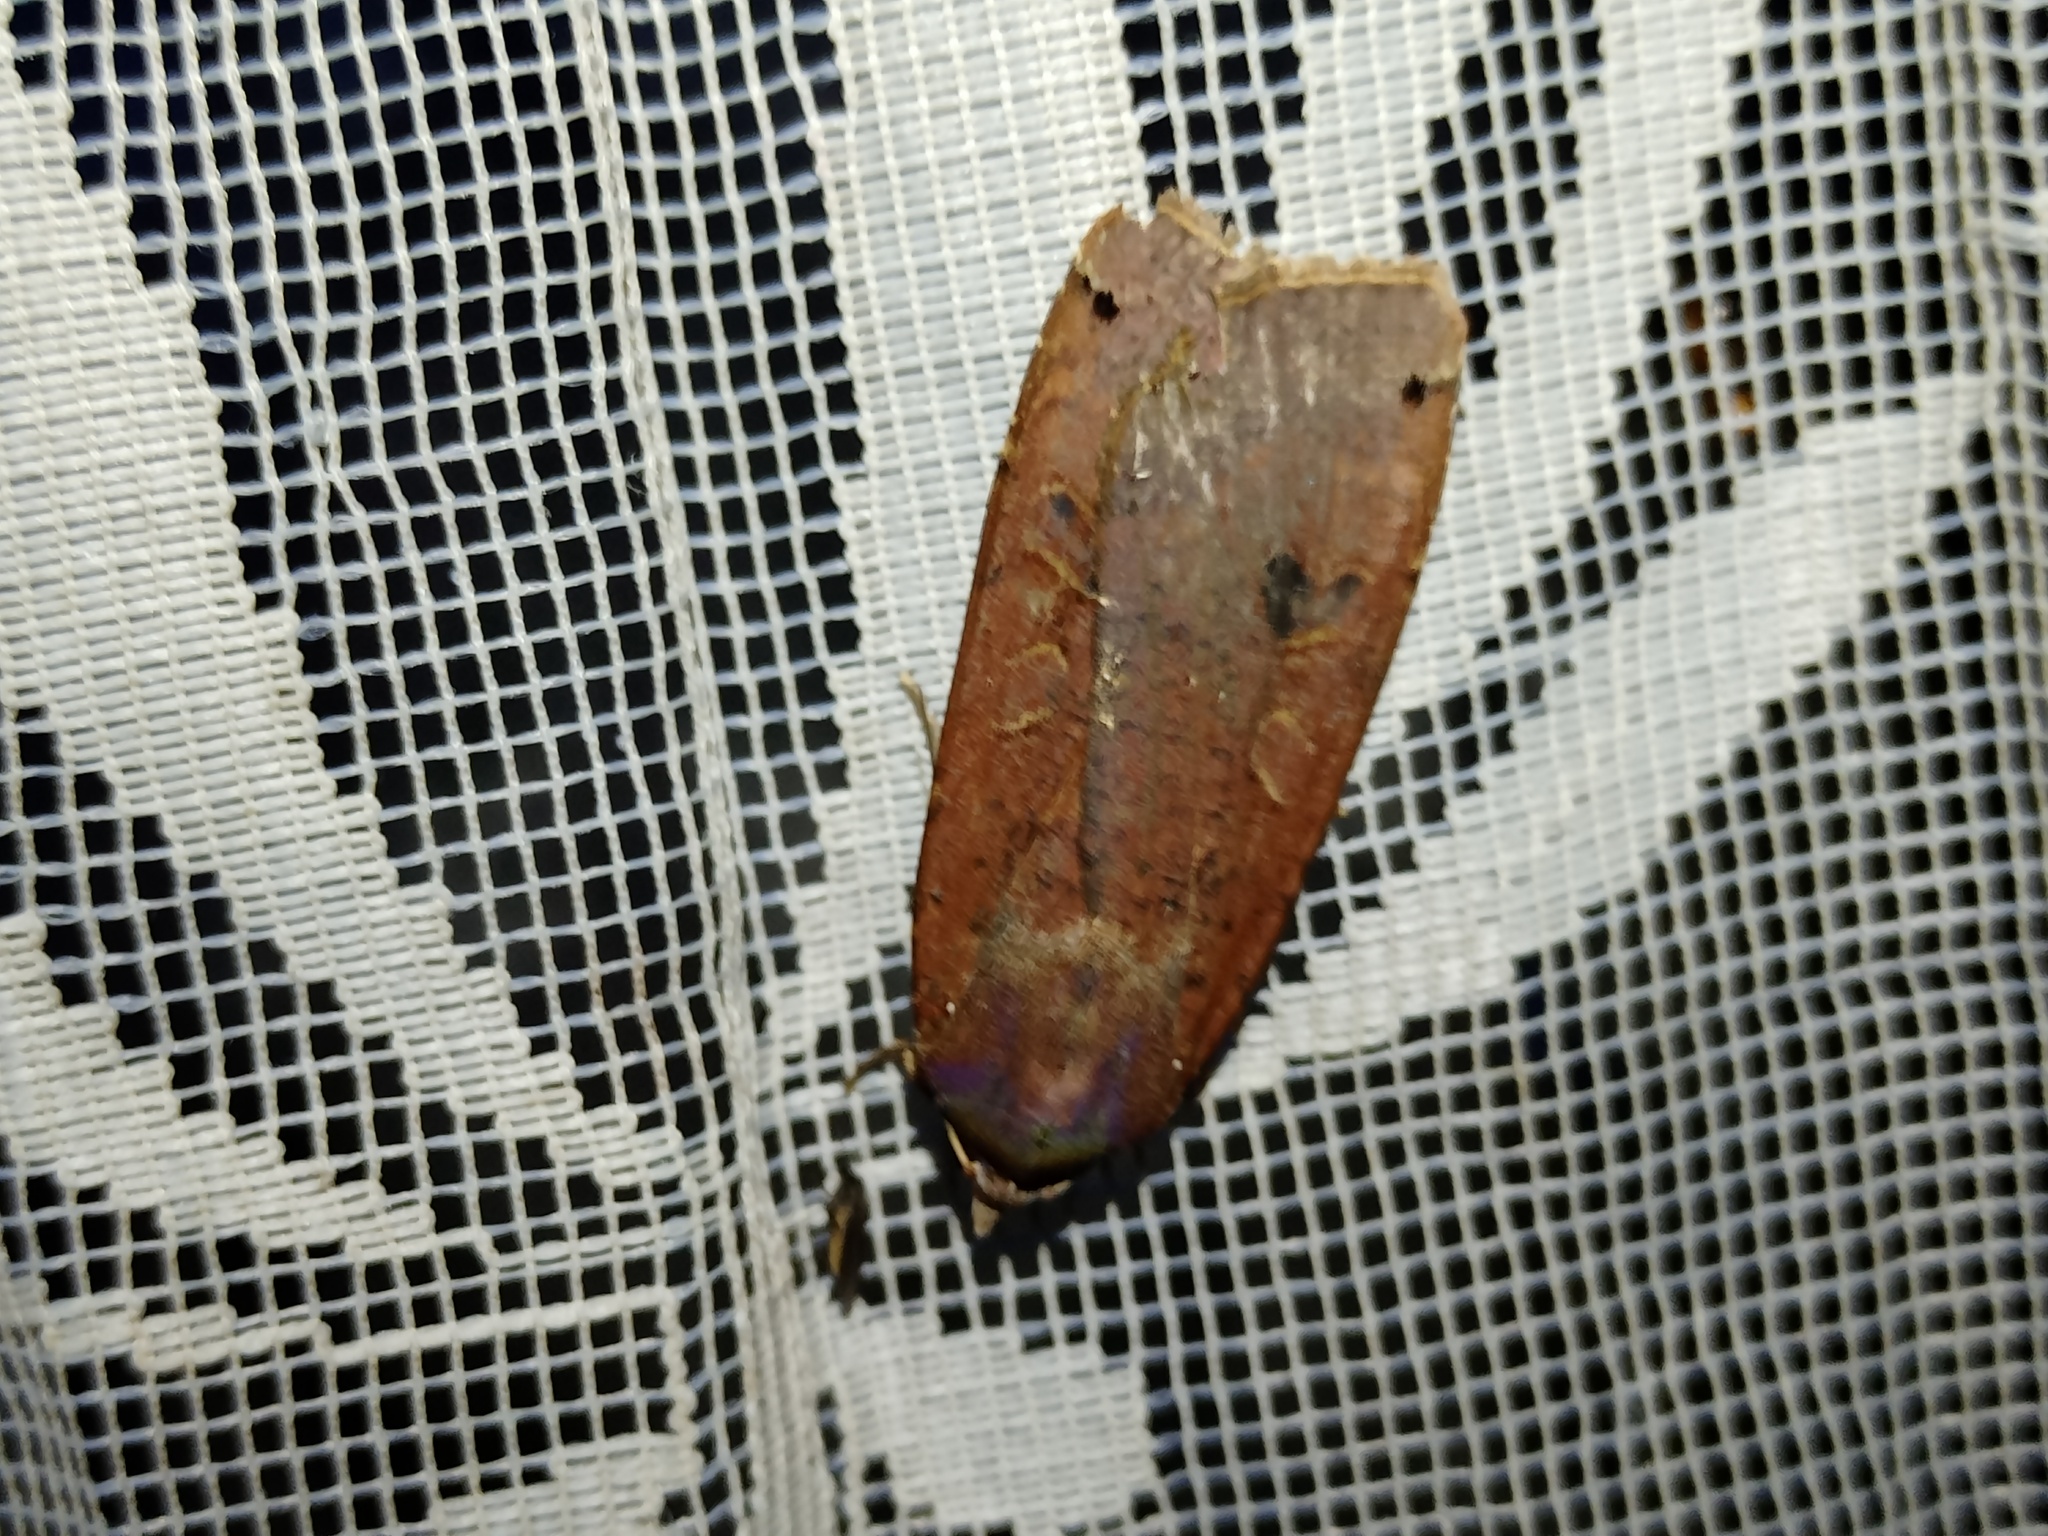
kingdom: Animalia
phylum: Arthropoda
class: Insecta
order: Lepidoptera
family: Noctuidae
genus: Noctua
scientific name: Noctua pronuba
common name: Large yellow underwing
